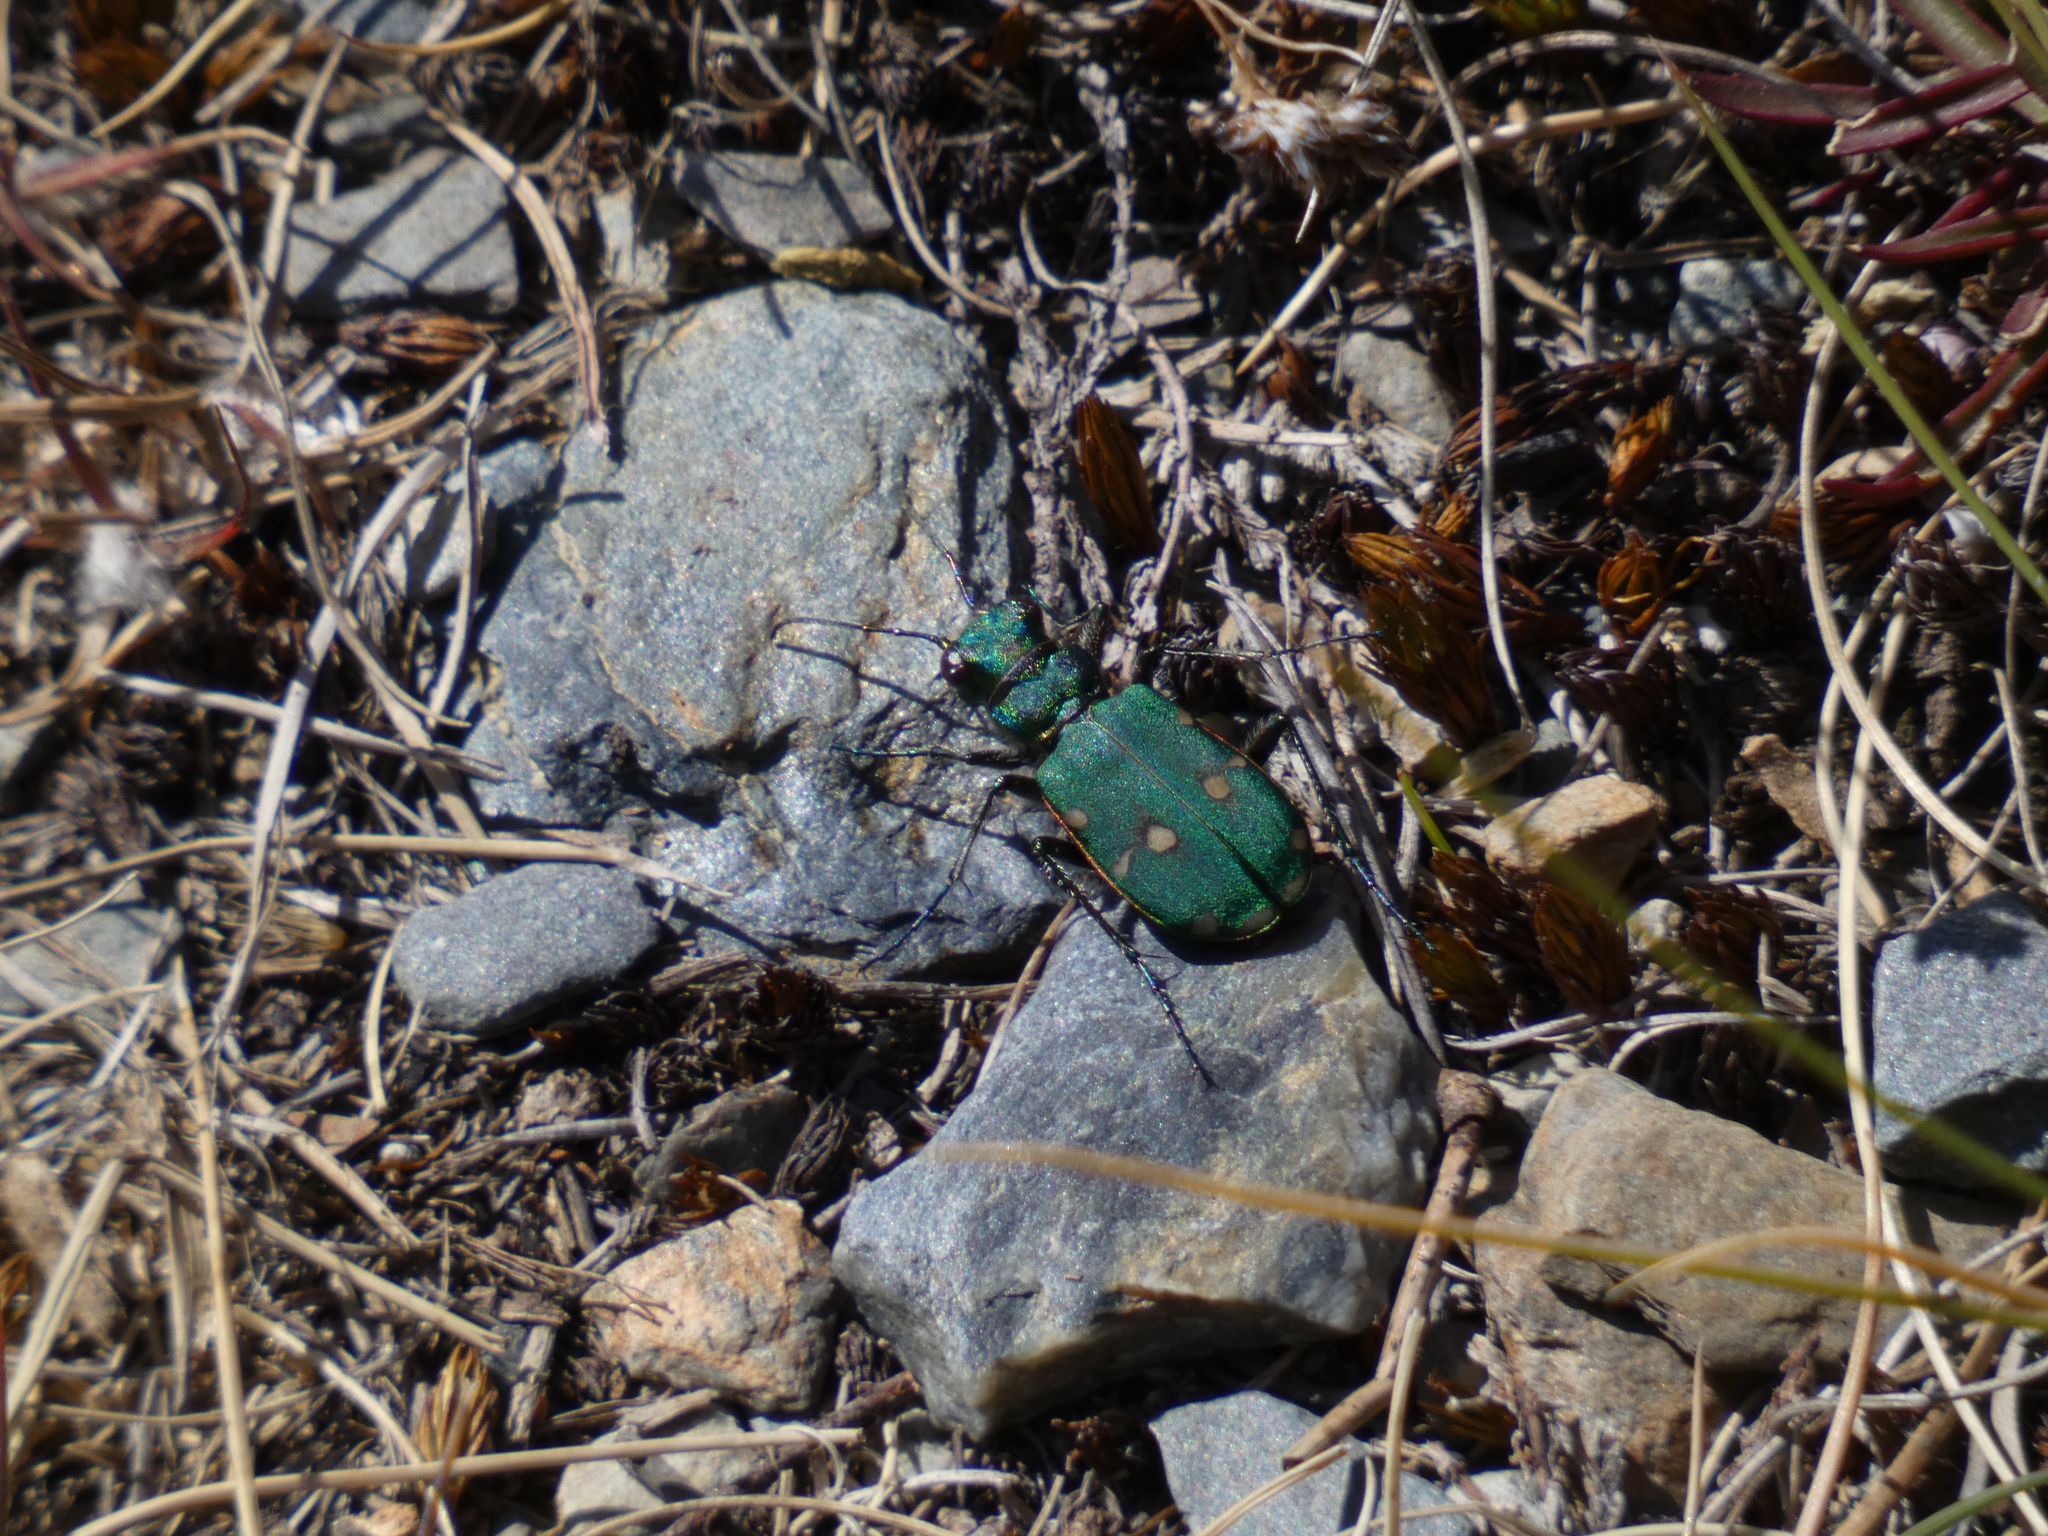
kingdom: Animalia
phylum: Arthropoda
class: Insecta
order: Coleoptera
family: Carabidae
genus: Cicindela
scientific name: Cicindela campestris
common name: Common tiger beetle
